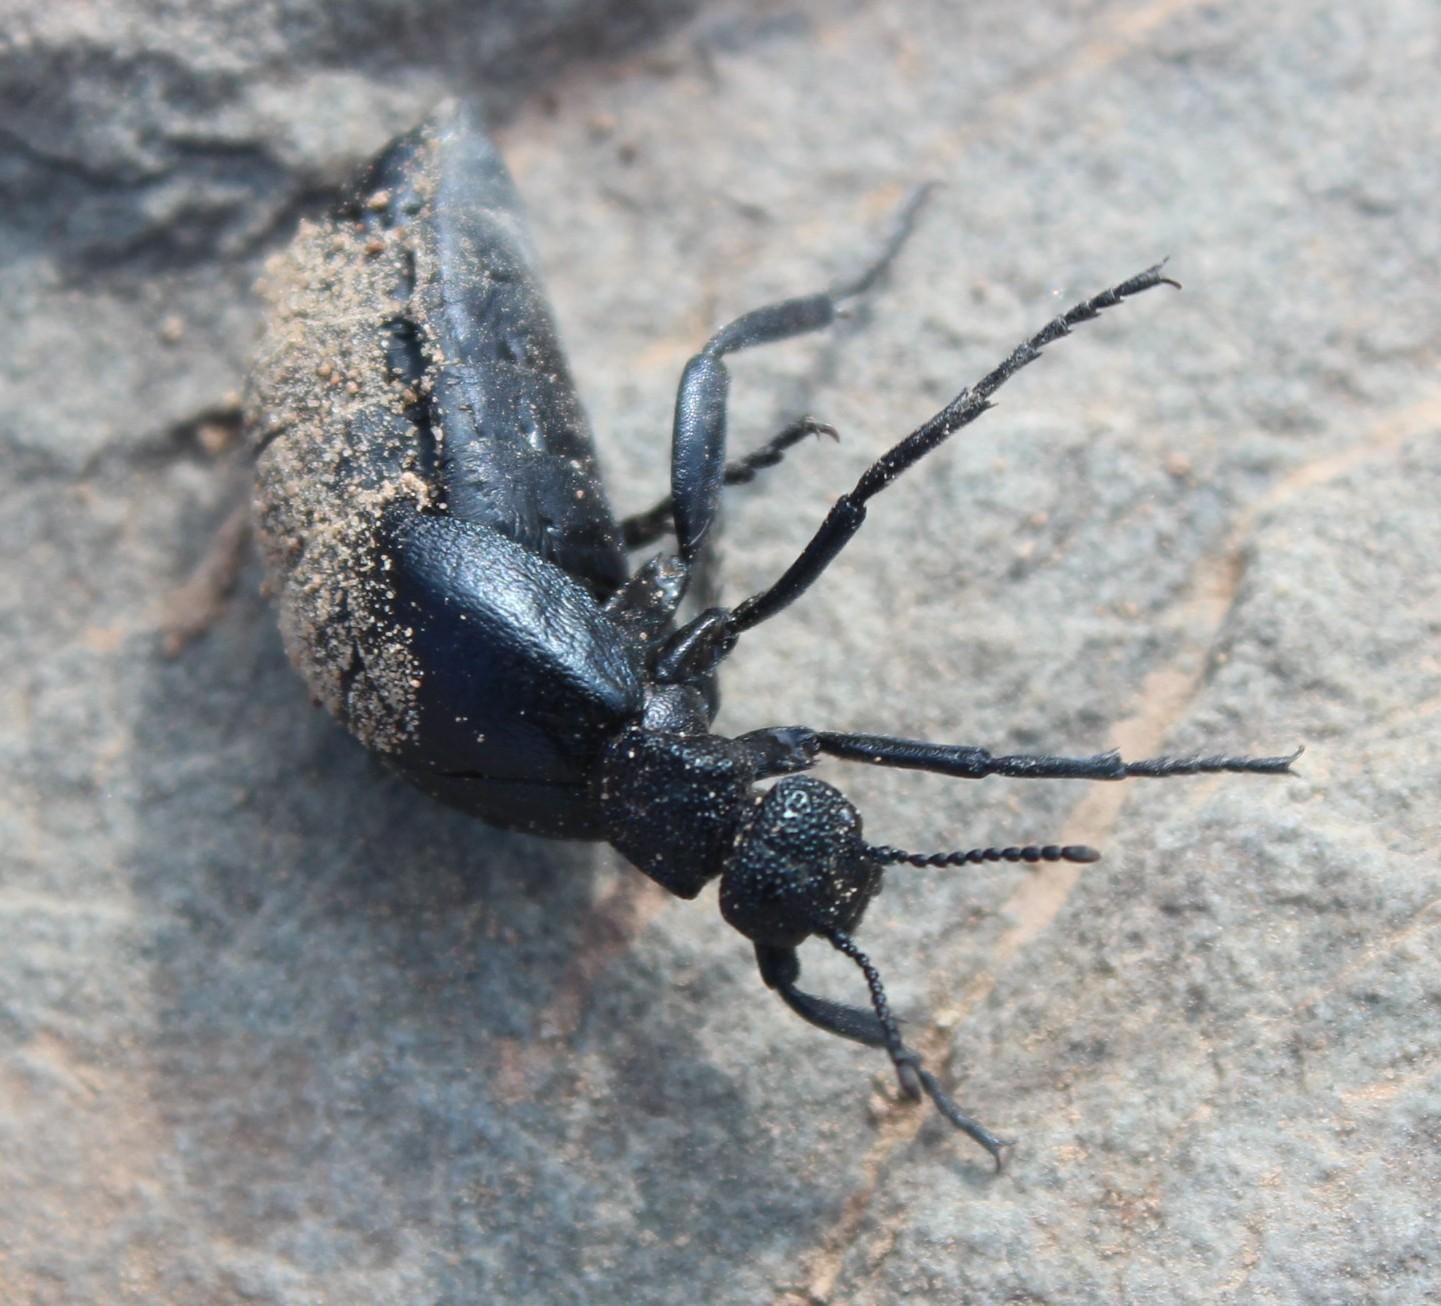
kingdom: Animalia
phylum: Arthropoda
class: Insecta
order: Coleoptera
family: Meloidae
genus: Meloe
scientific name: Meloe
